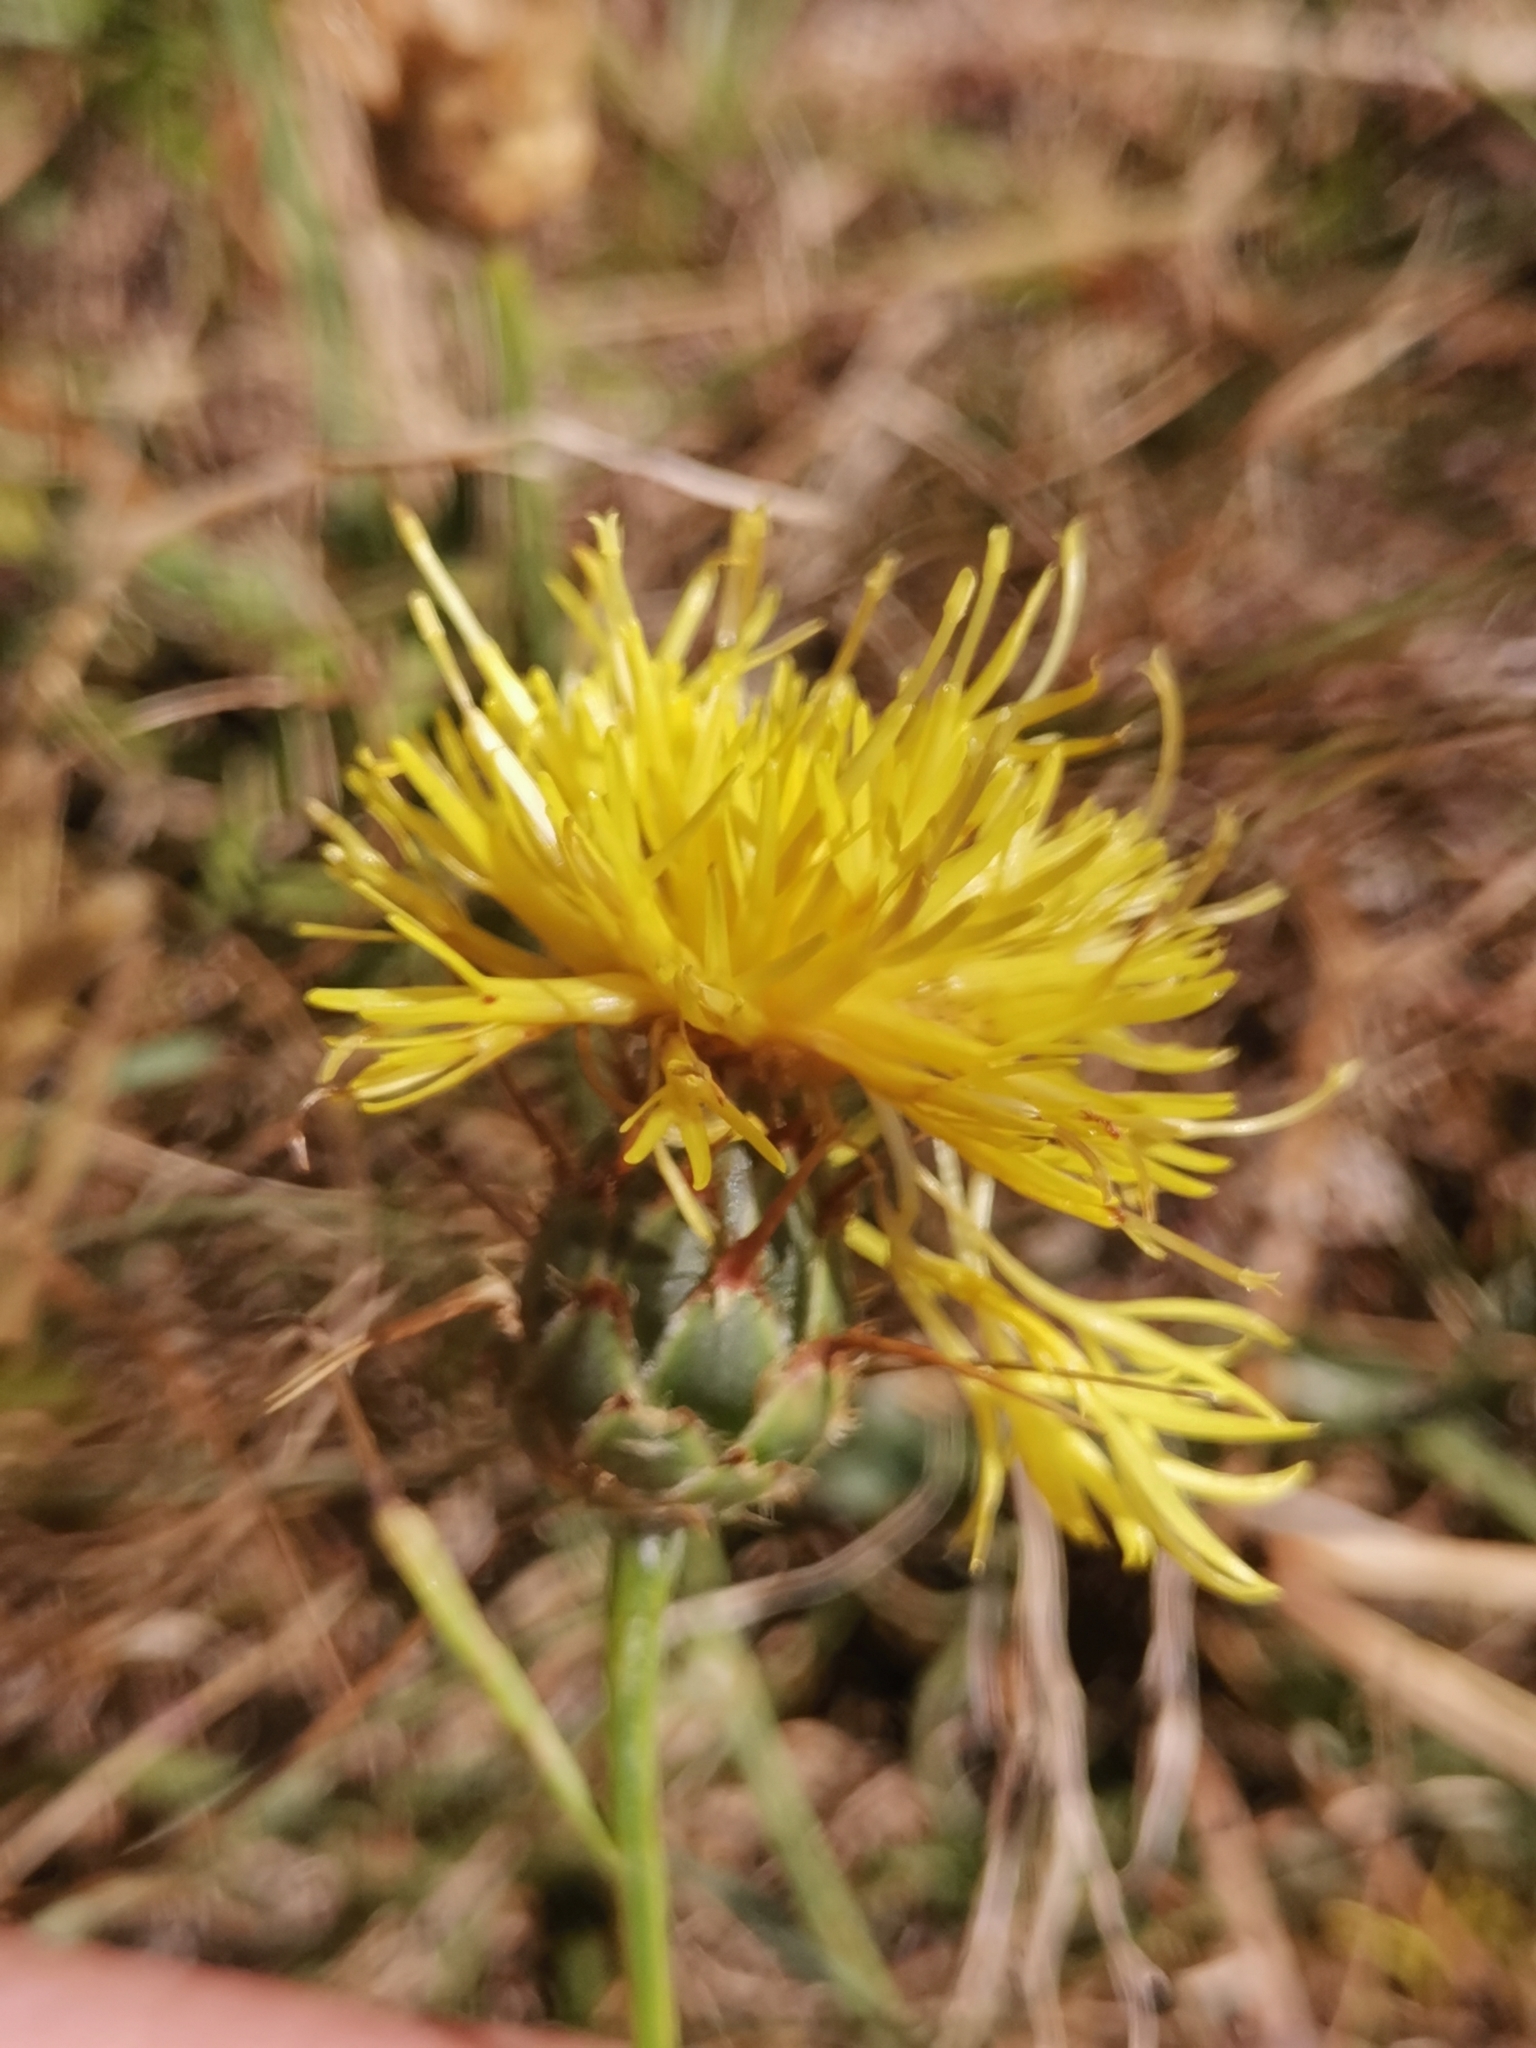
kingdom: Plantae
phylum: Tracheophyta
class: Magnoliopsida
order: Asterales
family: Asteraceae
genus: Centaurea
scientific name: Centaurea rupestris
